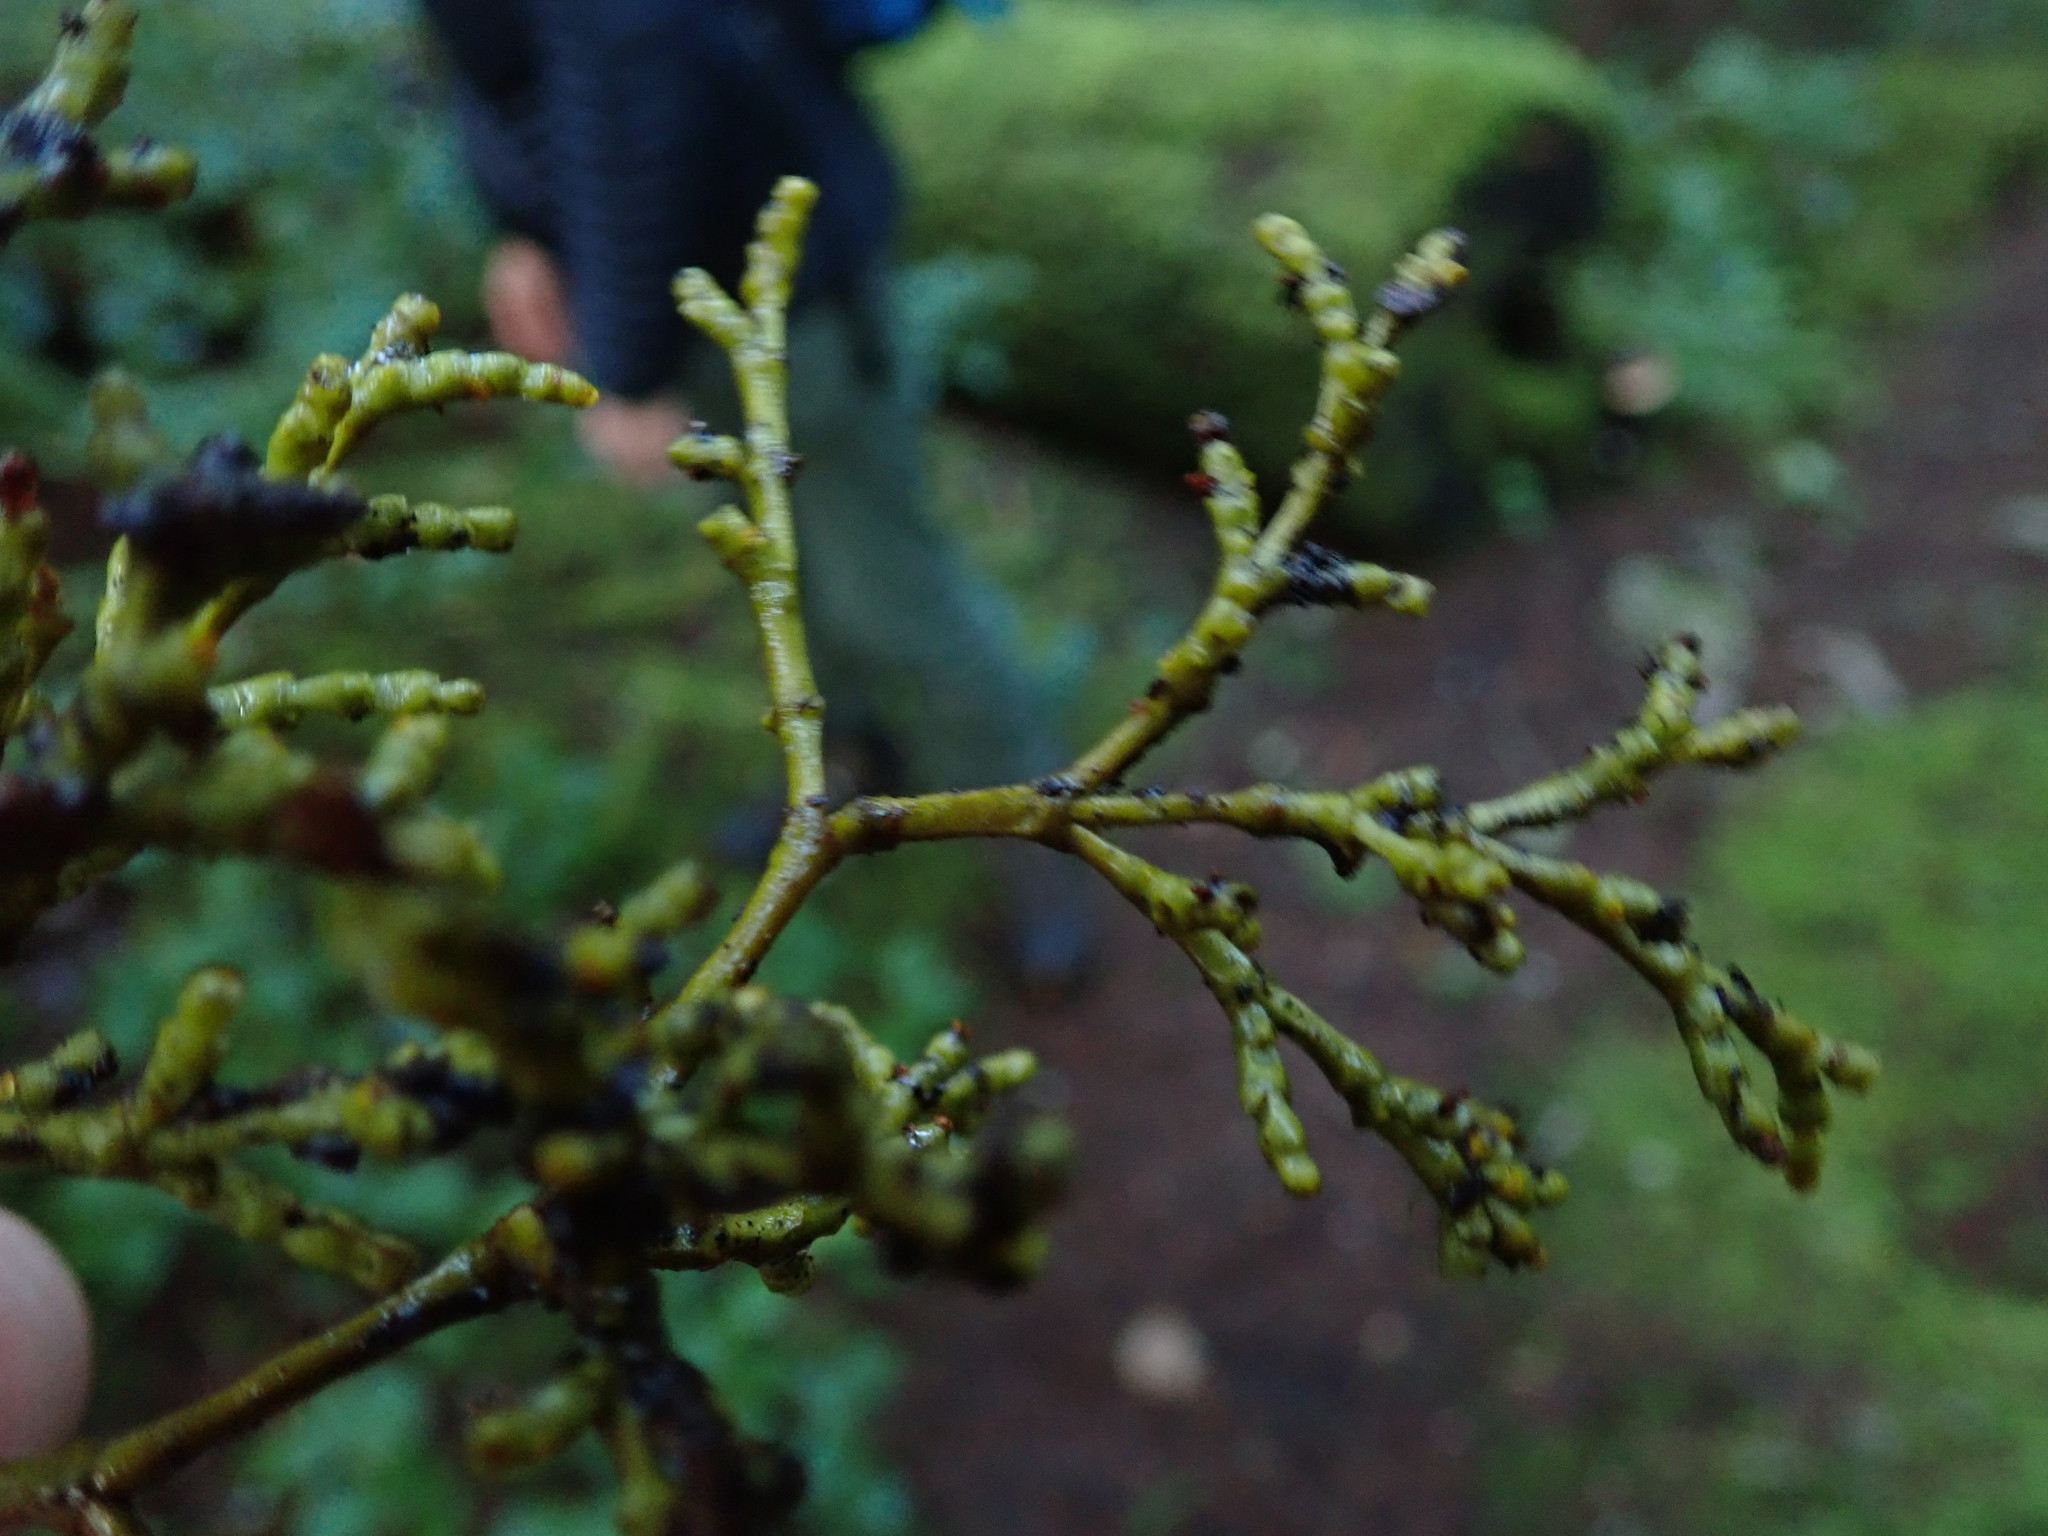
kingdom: Plantae
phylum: Tracheophyta
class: Magnoliopsida
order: Santalales
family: Viscaceae
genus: Arceuthobium
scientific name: Arceuthobium campylopodum
